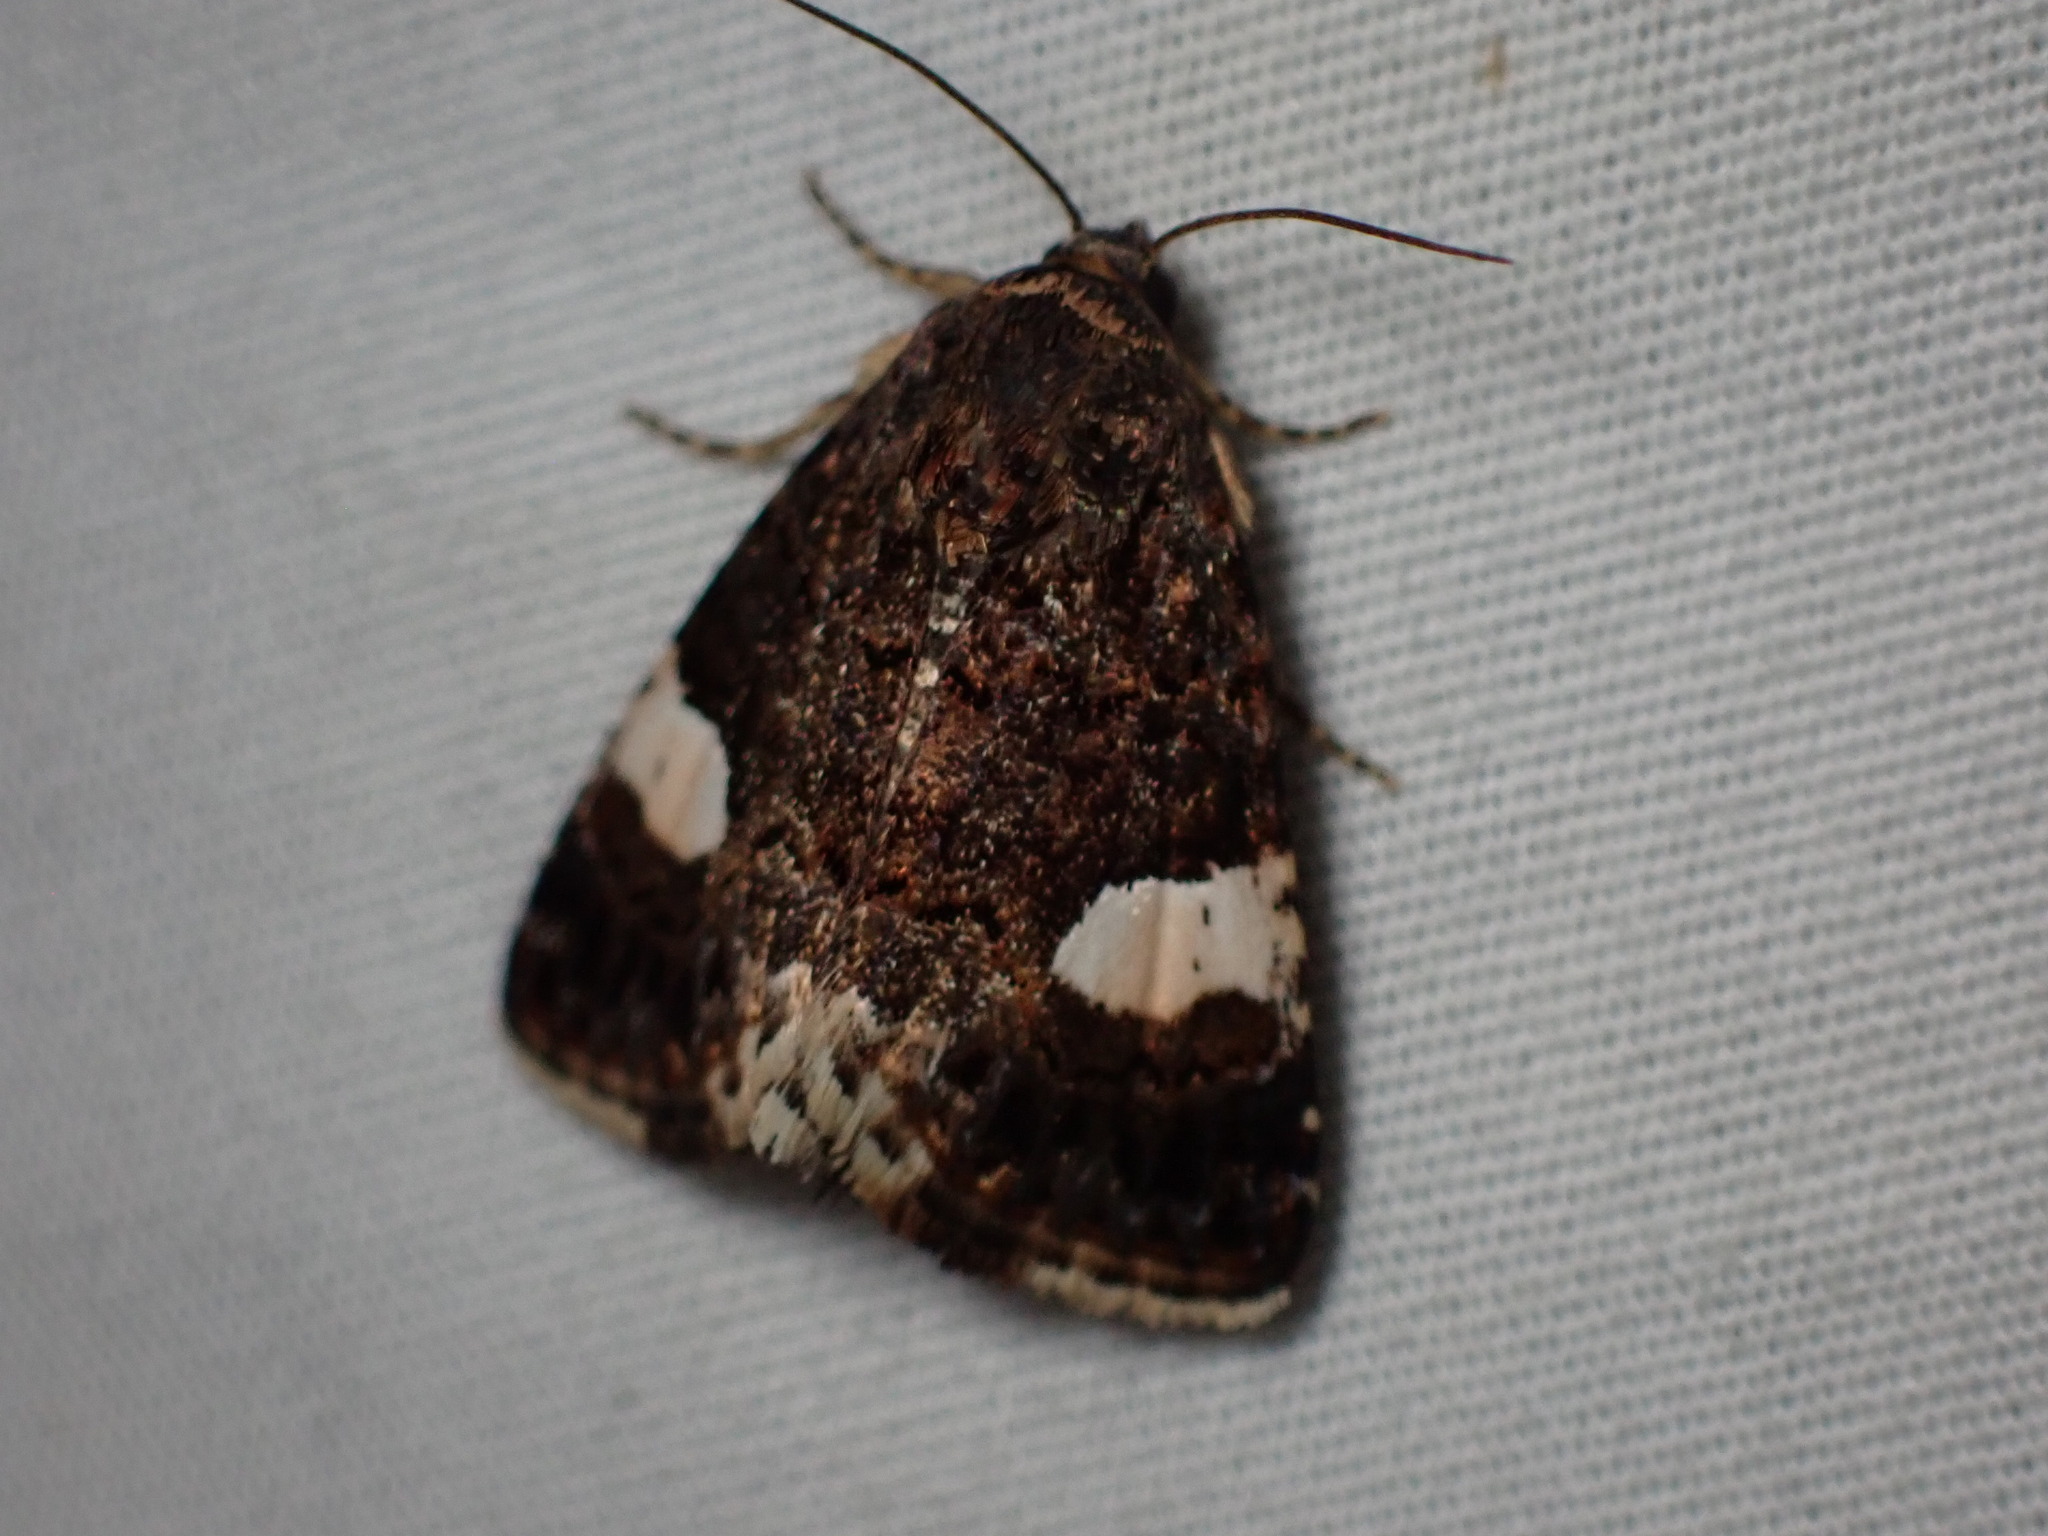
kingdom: Animalia
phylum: Arthropoda
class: Insecta
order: Lepidoptera
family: Erebidae
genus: Tyta
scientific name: Tyta luctuosa
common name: Four-spotted
